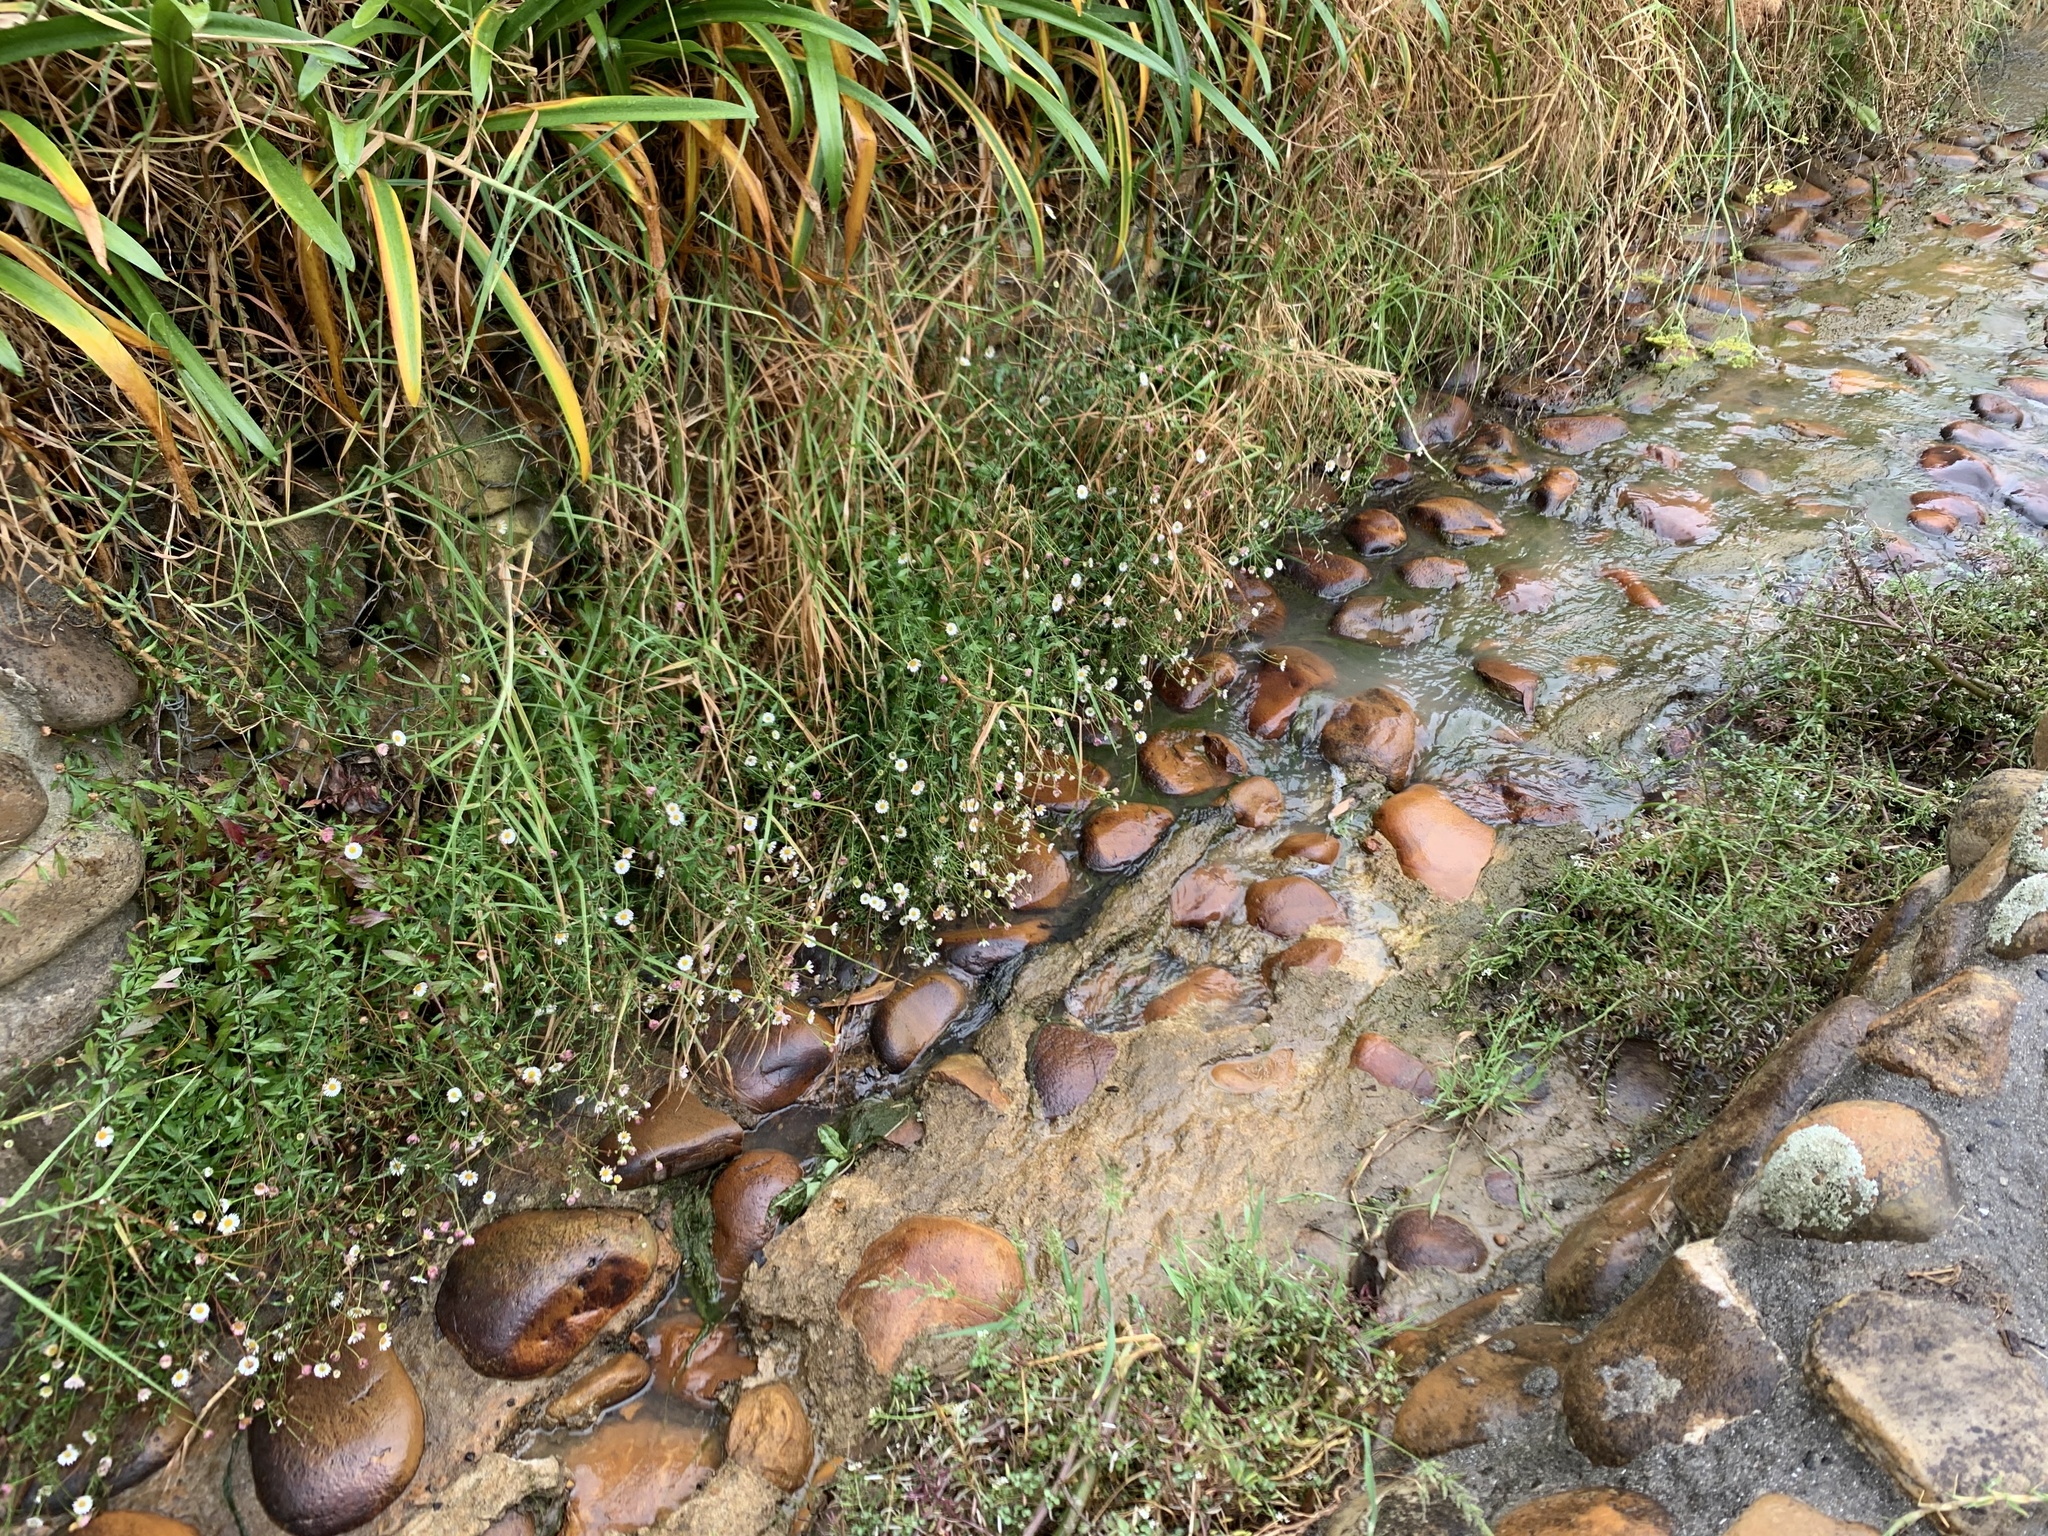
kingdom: Plantae
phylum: Tracheophyta
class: Magnoliopsida
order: Asterales
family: Asteraceae
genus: Erigeron
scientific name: Erigeron karvinskianus
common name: Mexican fleabane
